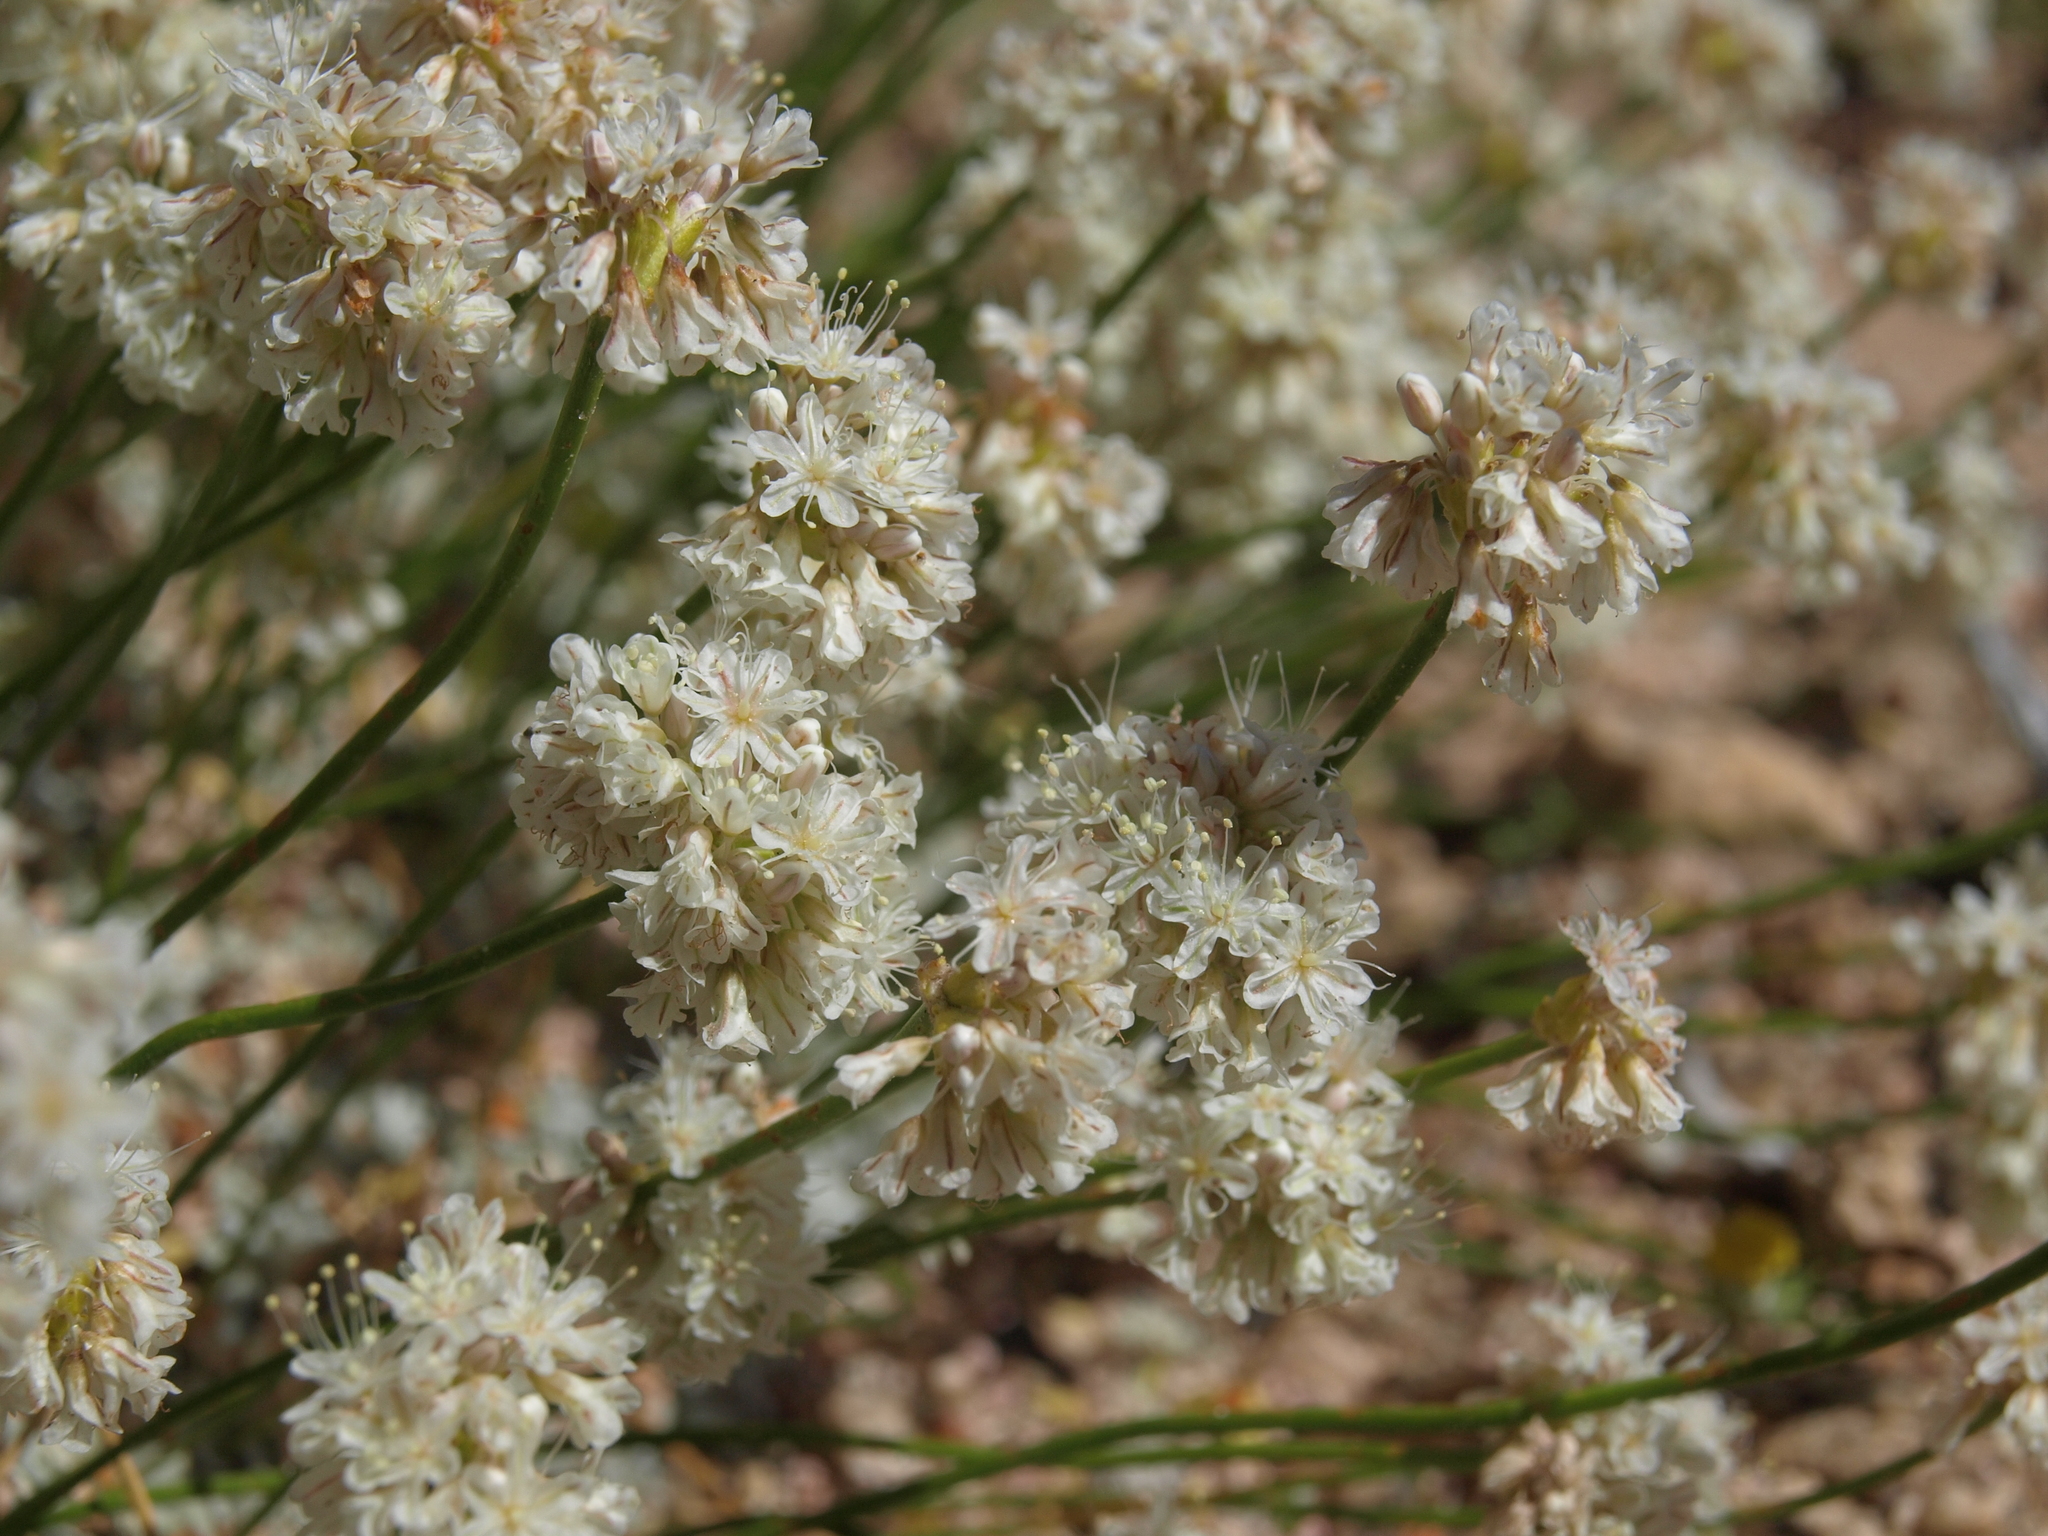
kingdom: Plantae
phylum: Tracheophyta
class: Magnoliopsida
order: Caryophyllales
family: Polygonaceae
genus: Eriogonum
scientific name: Eriogonum kennedyi
